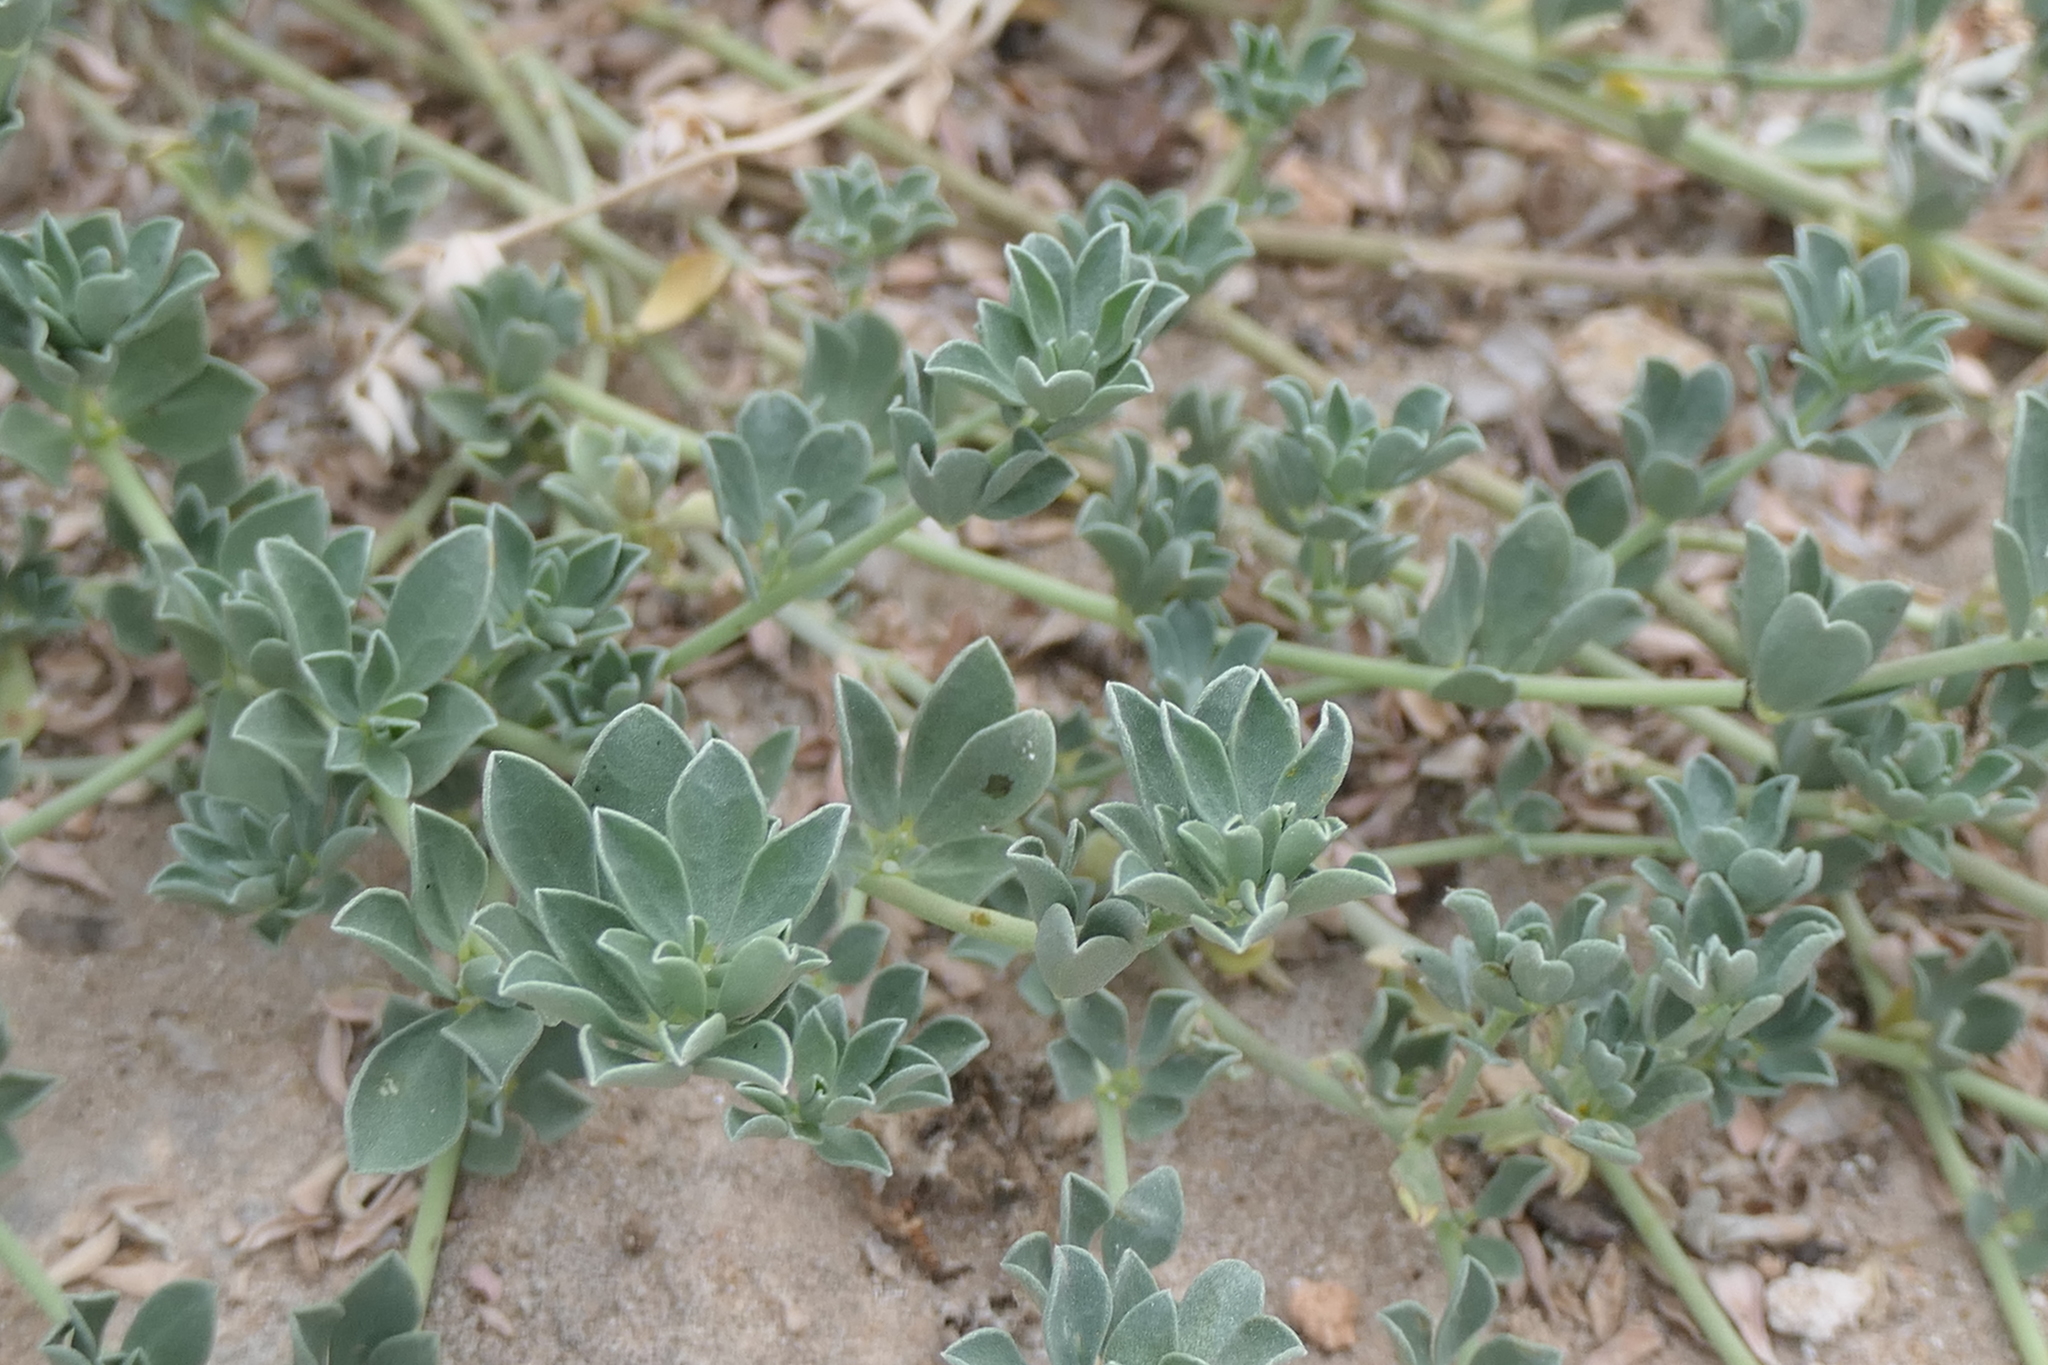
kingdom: Plantae
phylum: Tracheophyta
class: Magnoliopsida
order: Fabales
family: Fabaceae
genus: Lotus
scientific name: Lotus cytisoides
